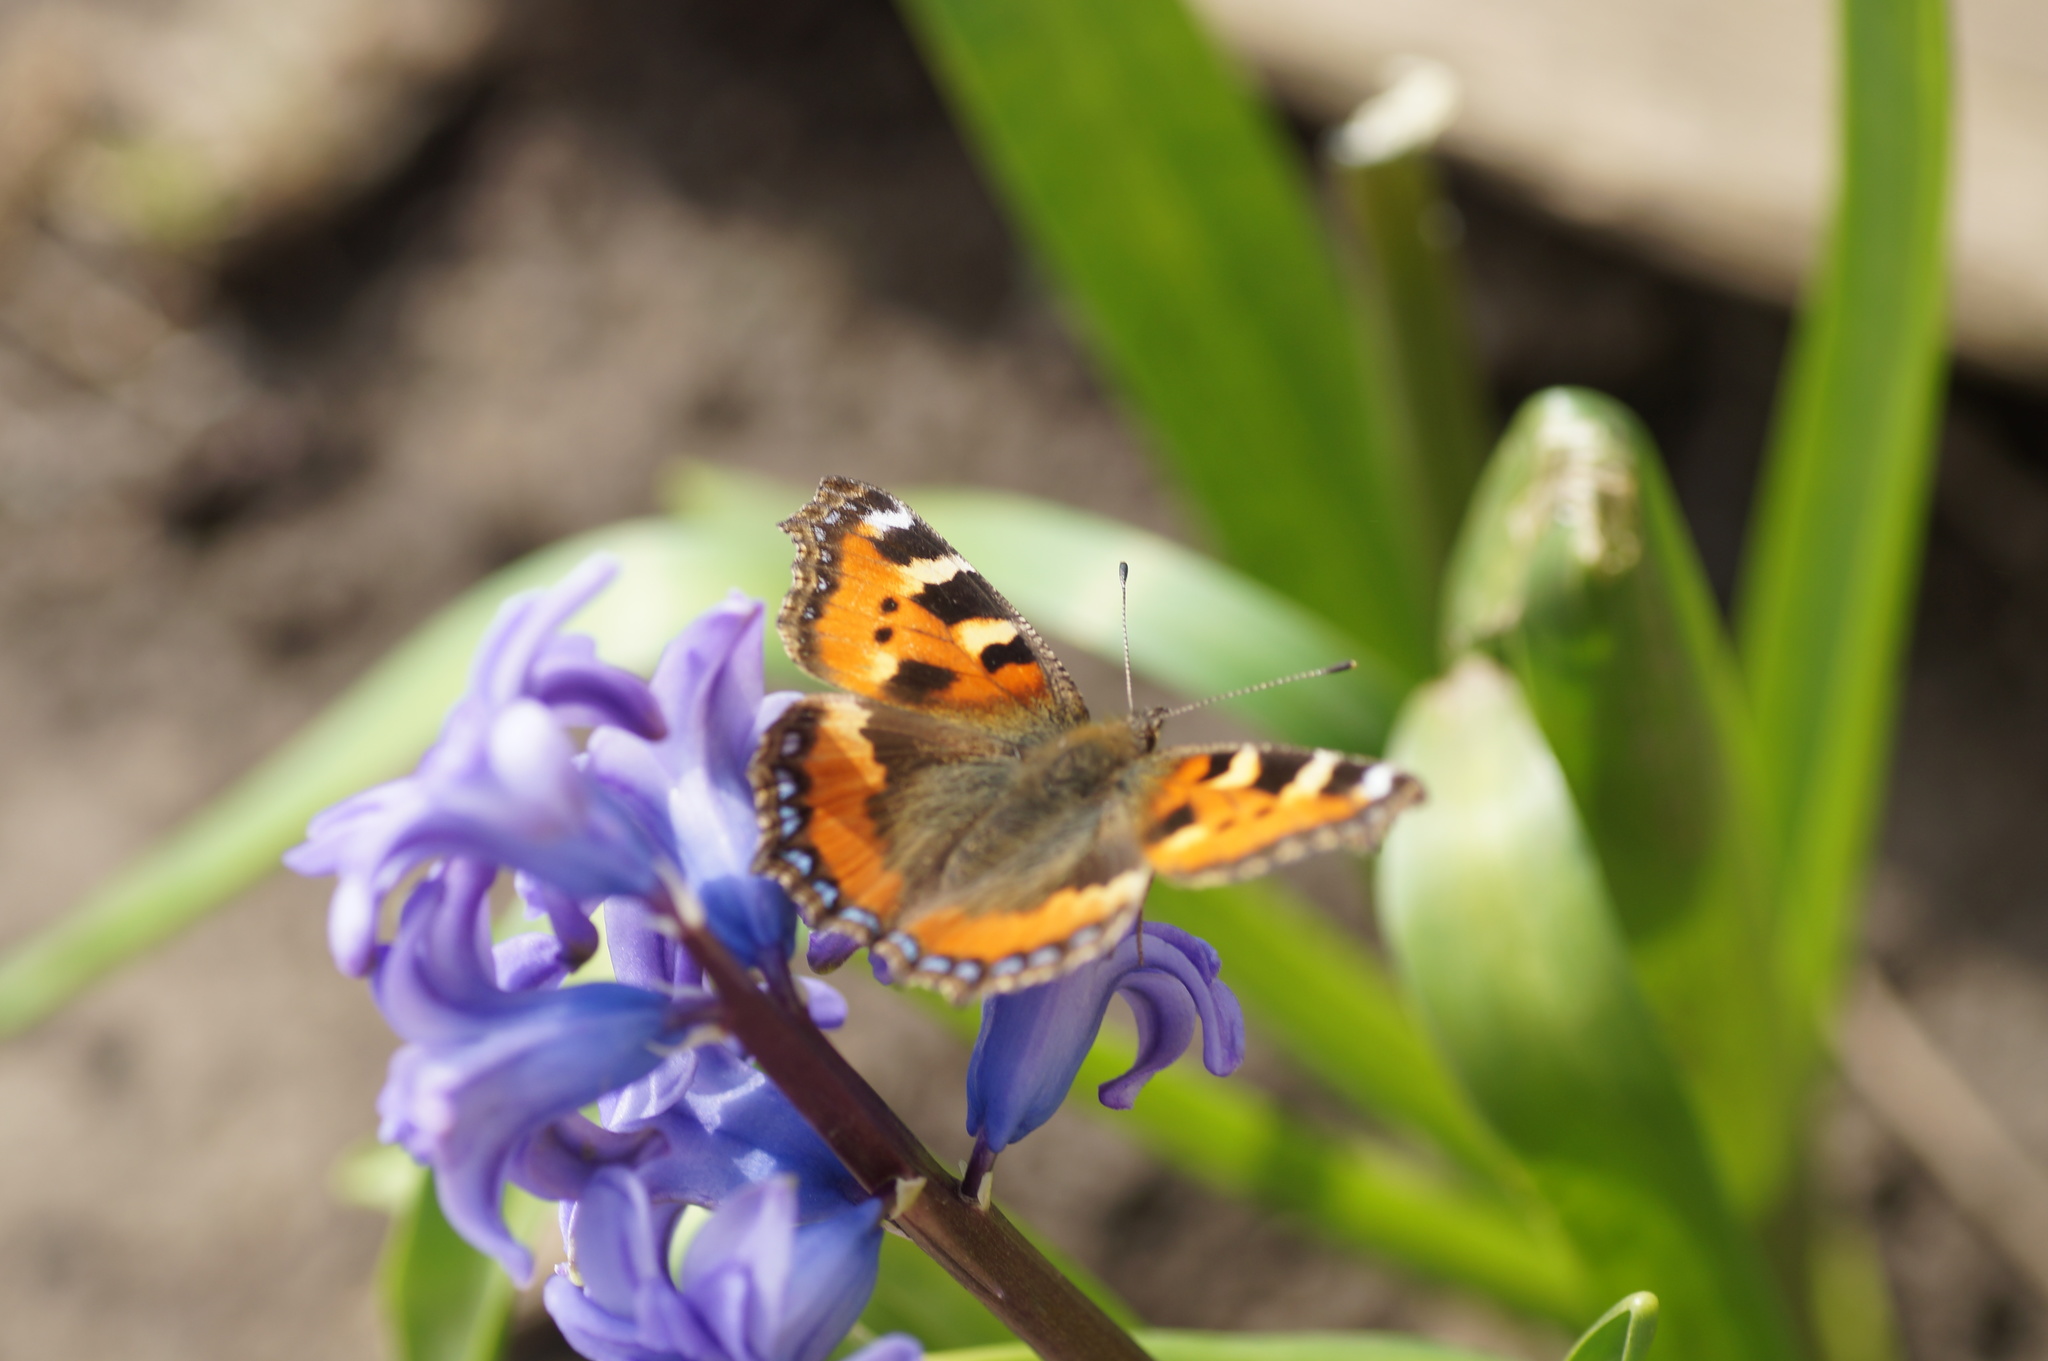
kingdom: Animalia
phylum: Arthropoda
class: Insecta
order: Lepidoptera
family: Nymphalidae
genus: Aglais
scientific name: Aglais urticae
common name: Small tortoiseshell
